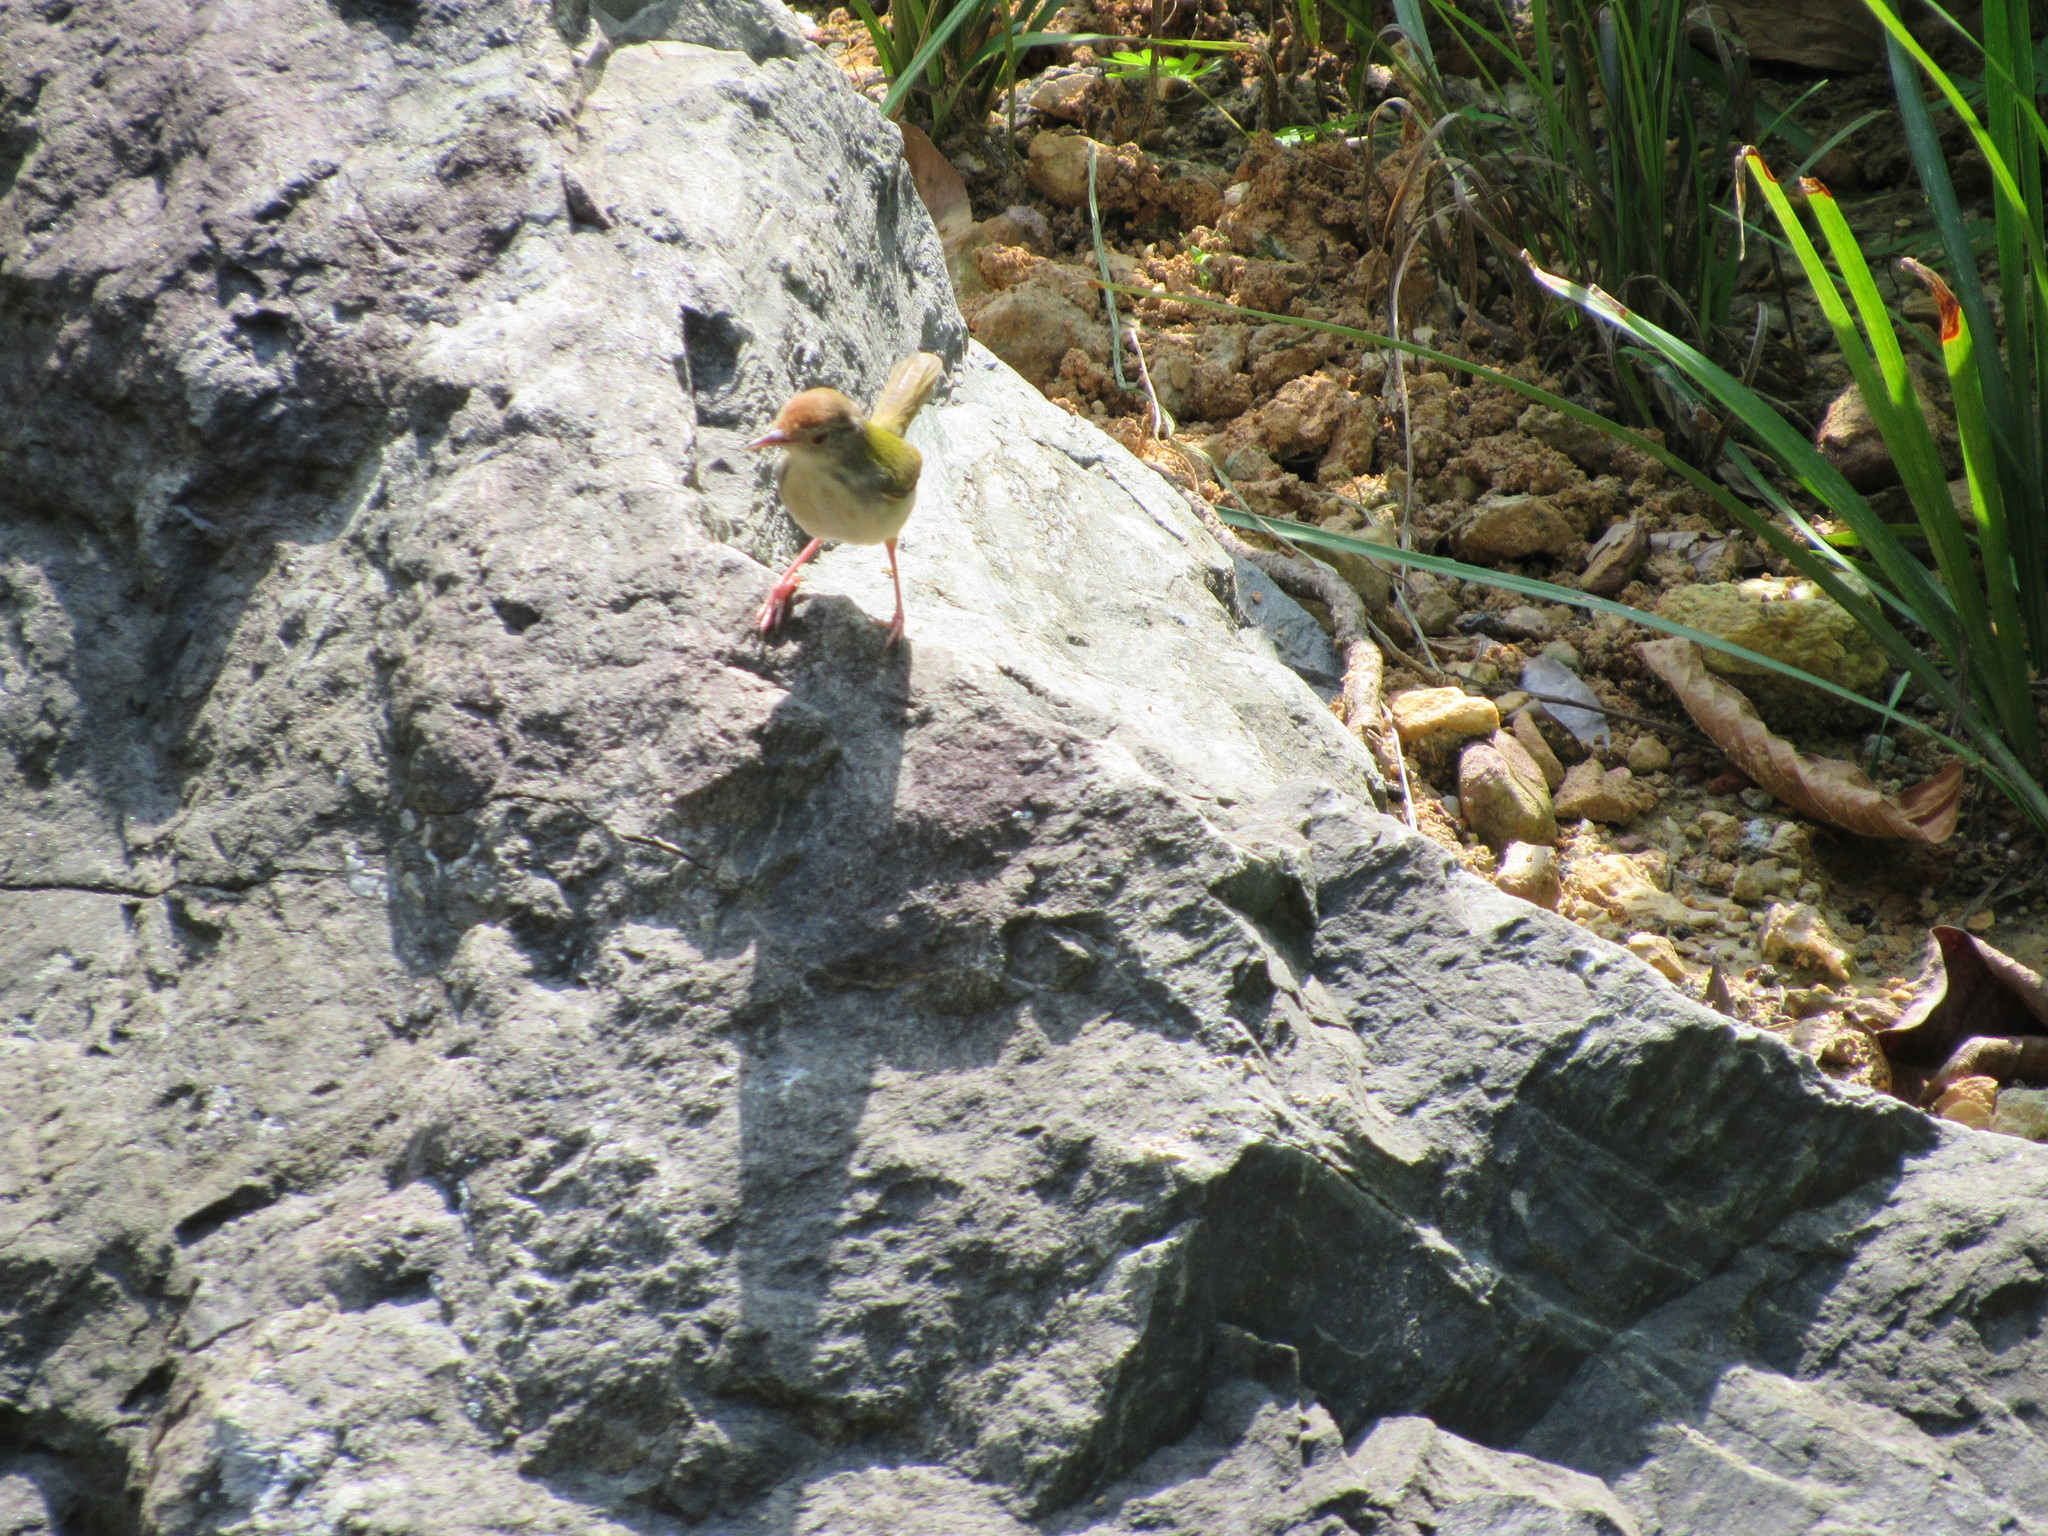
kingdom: Animalia
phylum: Chordata
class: Aves
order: Passeriformes
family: Cisticolidae
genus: Orthotomus
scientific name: Orthotomus sutorius
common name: Common tailorbird
